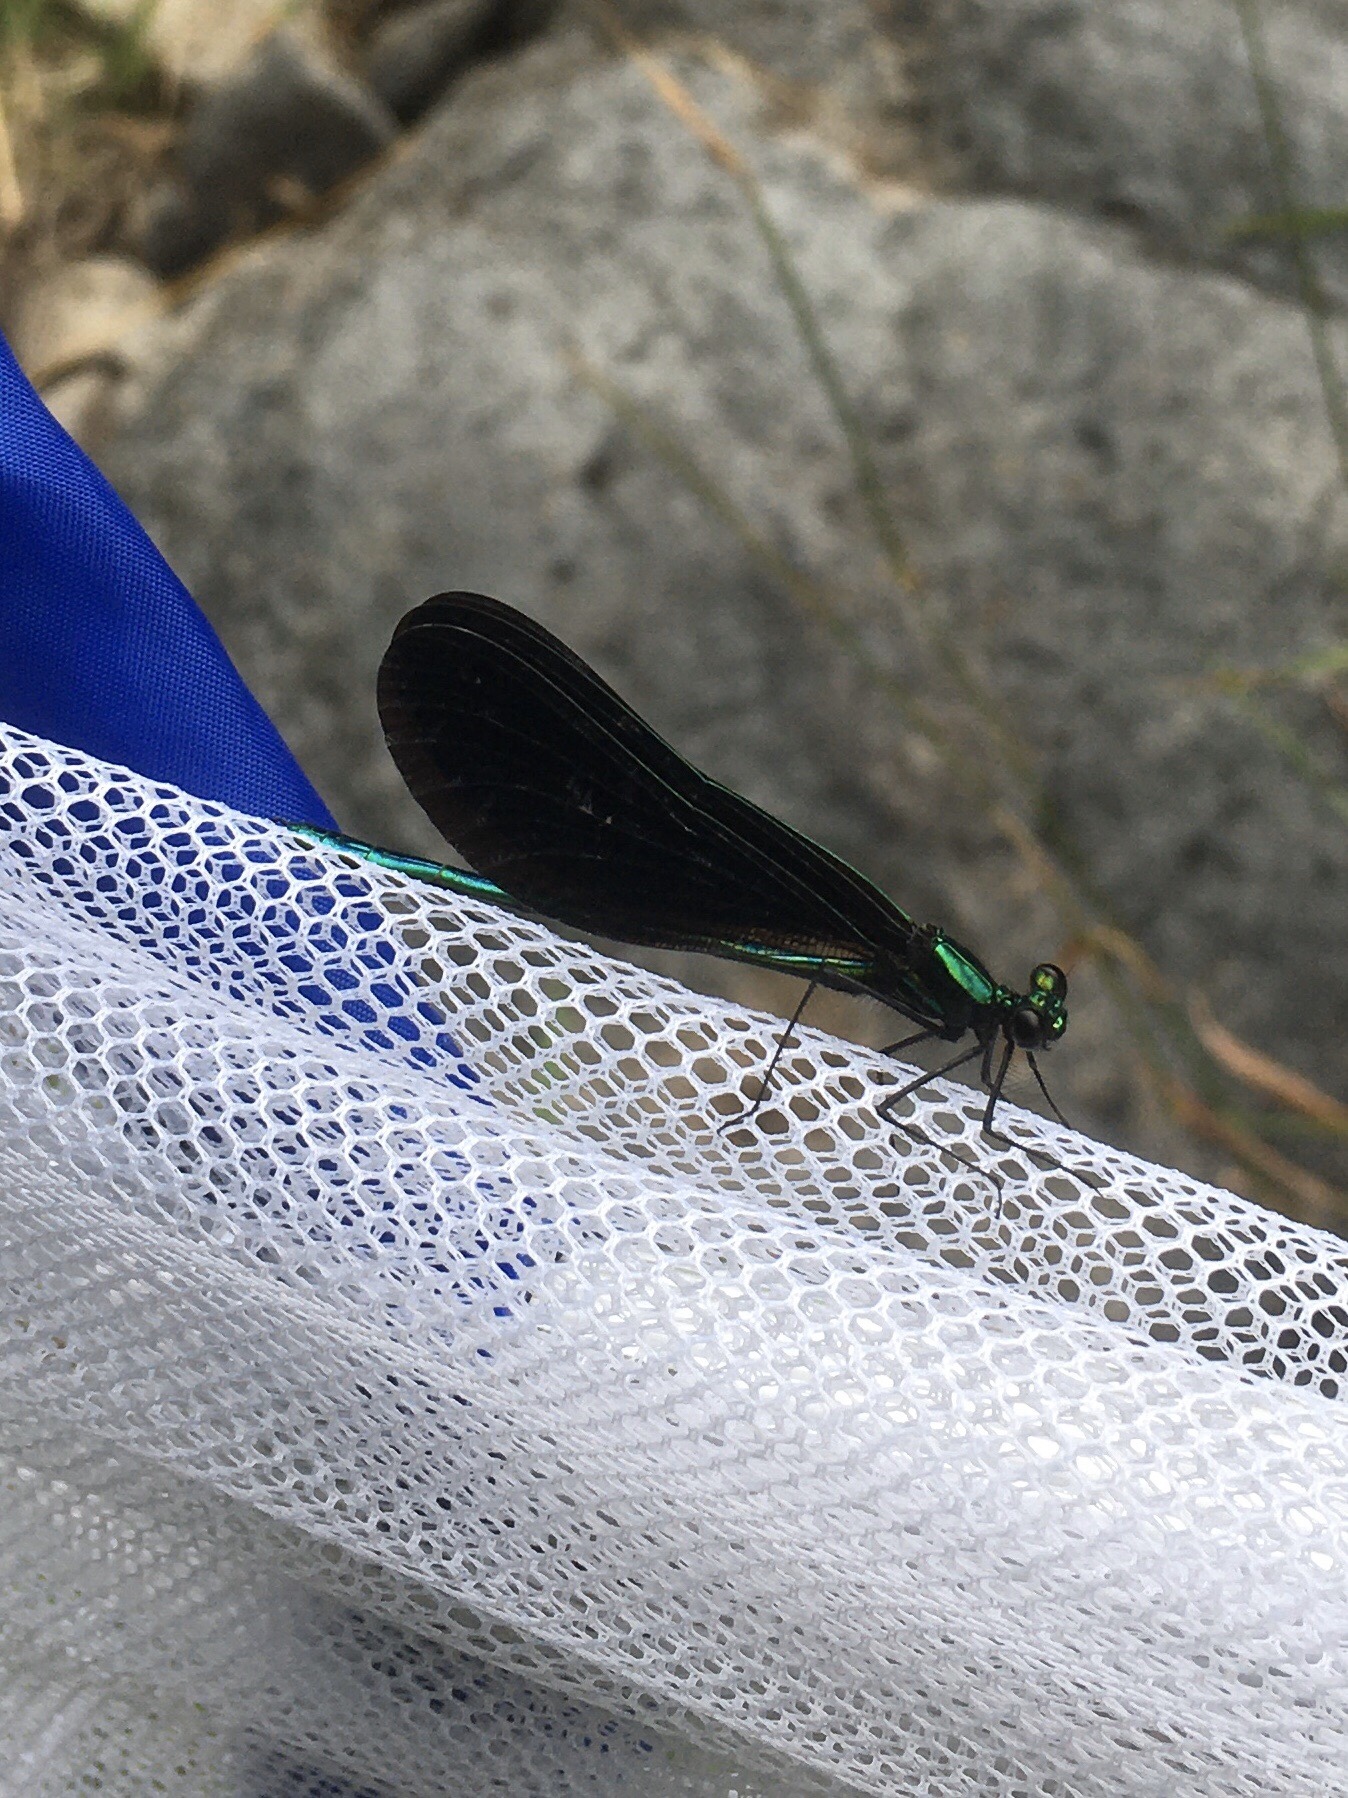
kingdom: Animalia
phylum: Arthropoda
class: Insecta
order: Odonata
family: Calopterygidae
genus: Calopteryx
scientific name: Calopteryx maculata
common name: Ebony jewelwing
